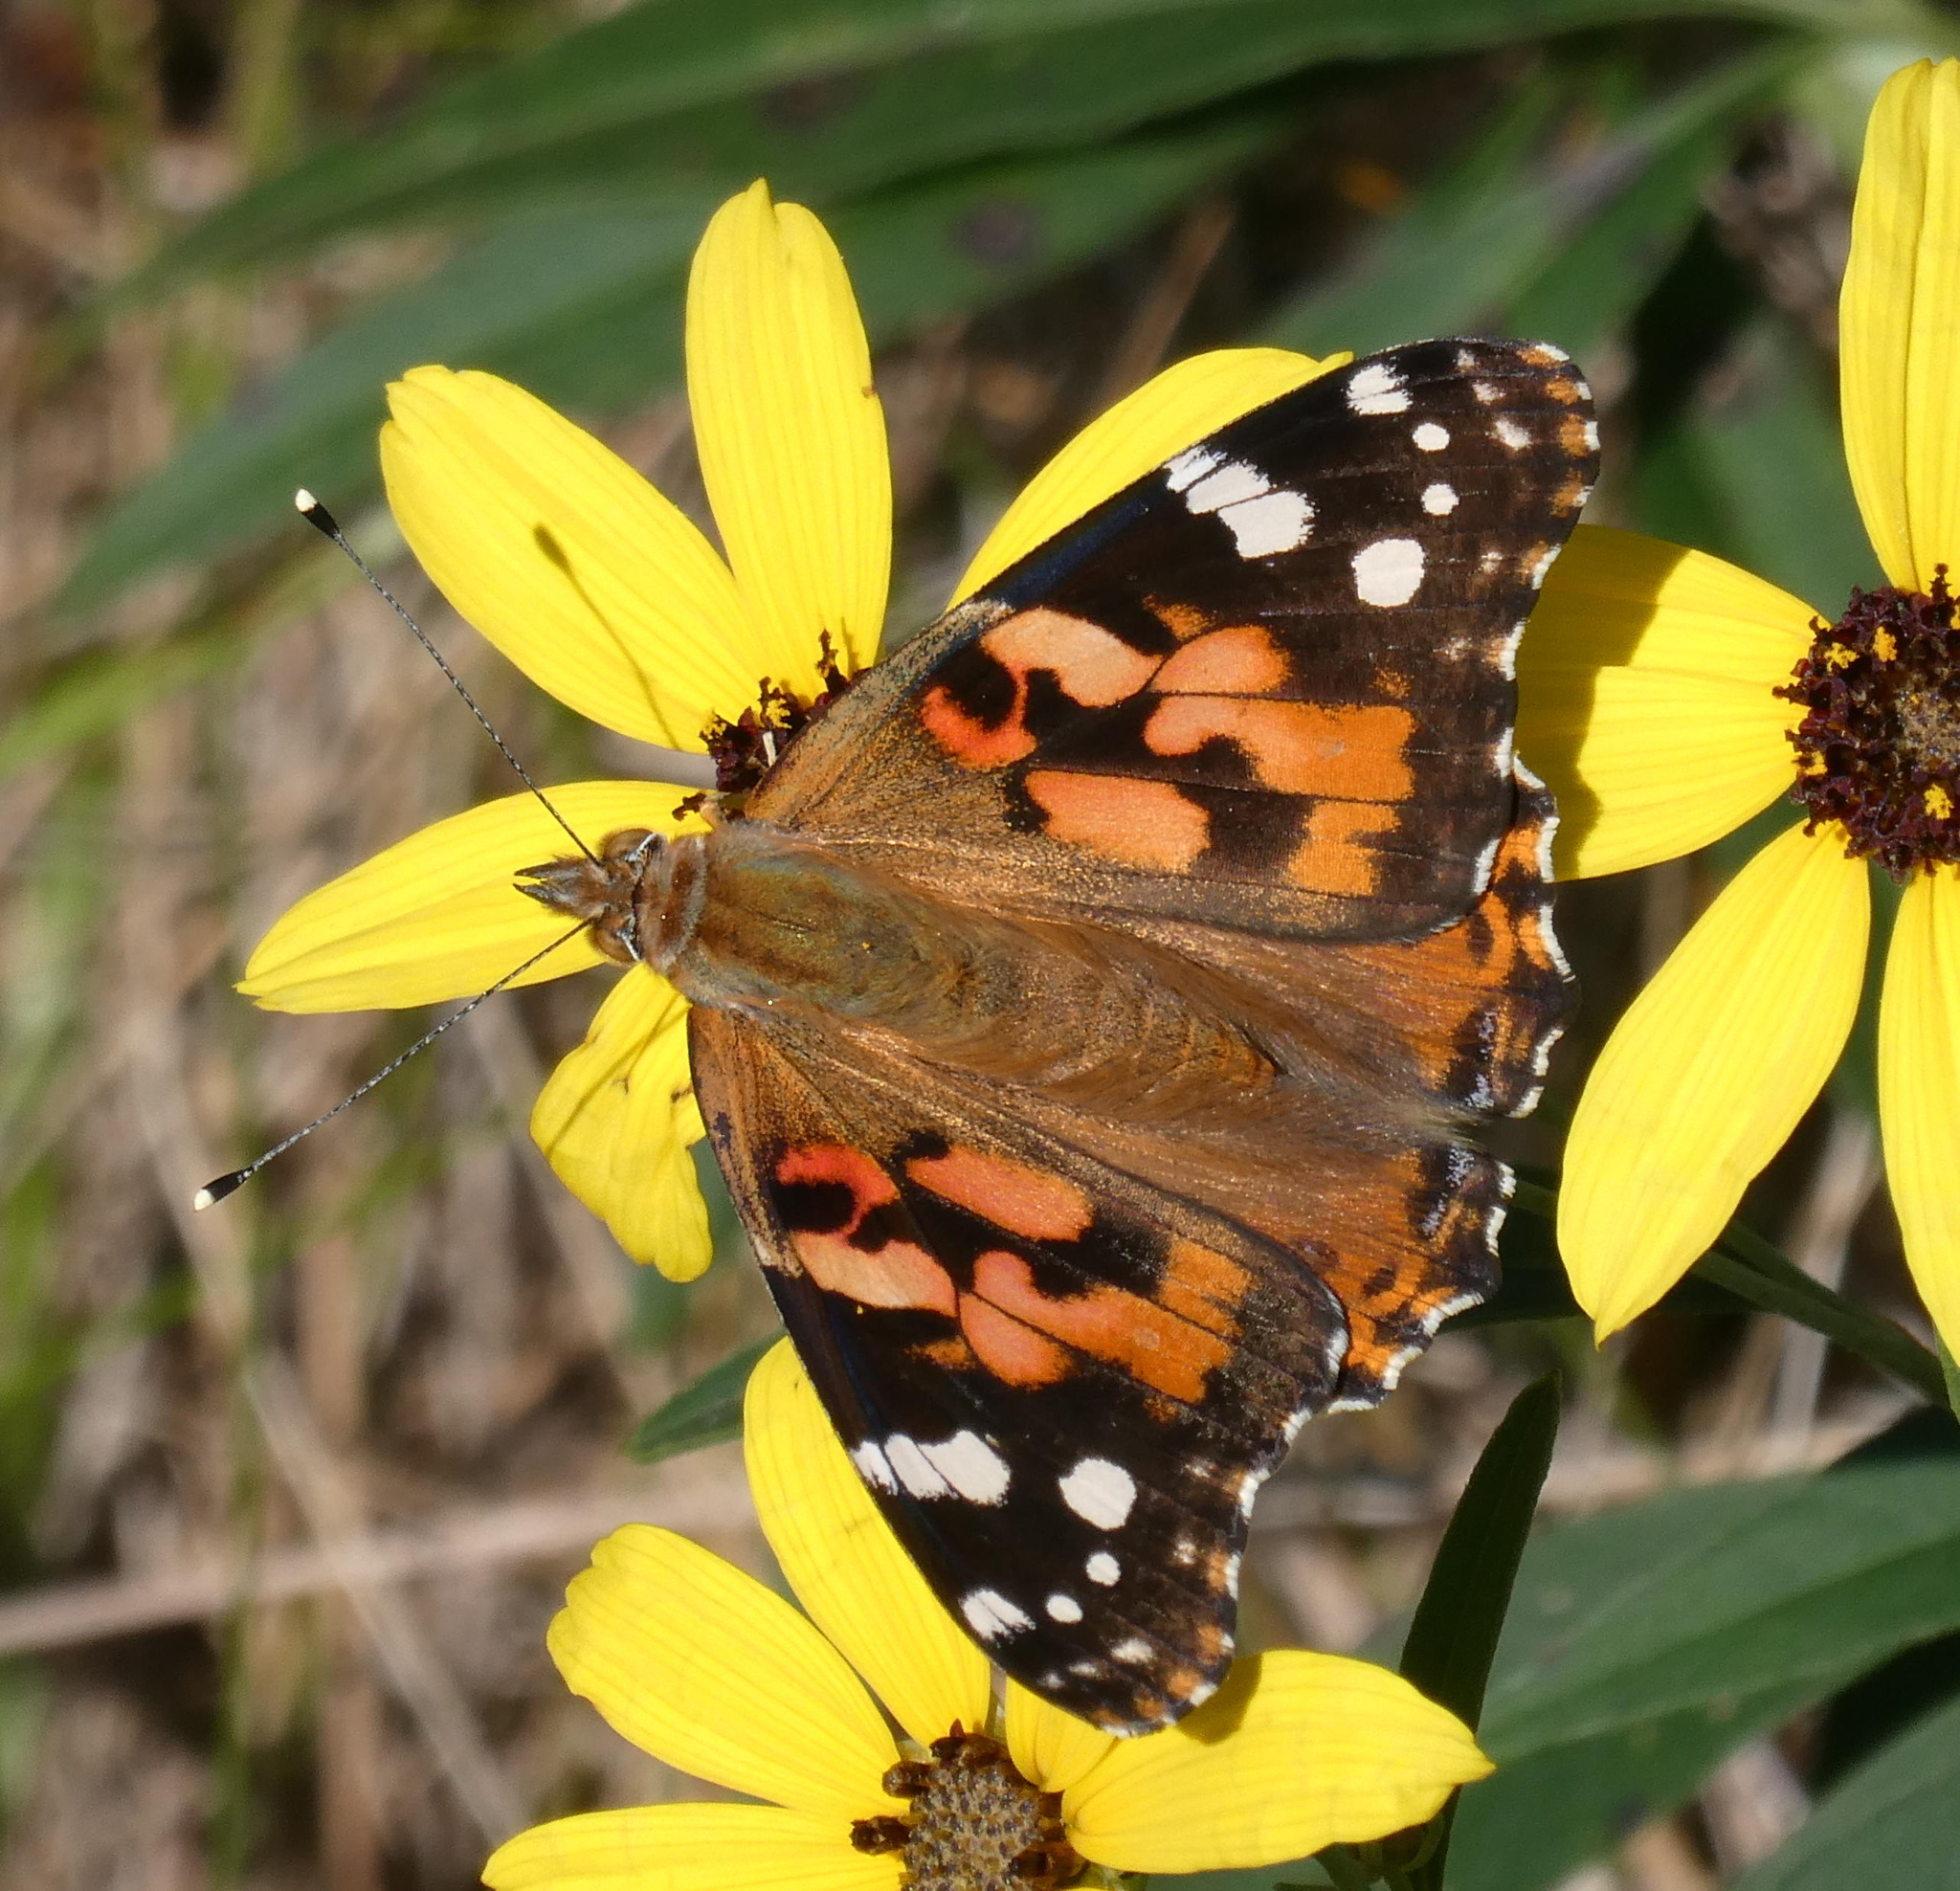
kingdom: Animalia
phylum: Arthropoda
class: Insecta
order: Lepidoptera
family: Nymphalidae
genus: Vanessa
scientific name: Vanessa cardui
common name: Painted lady
